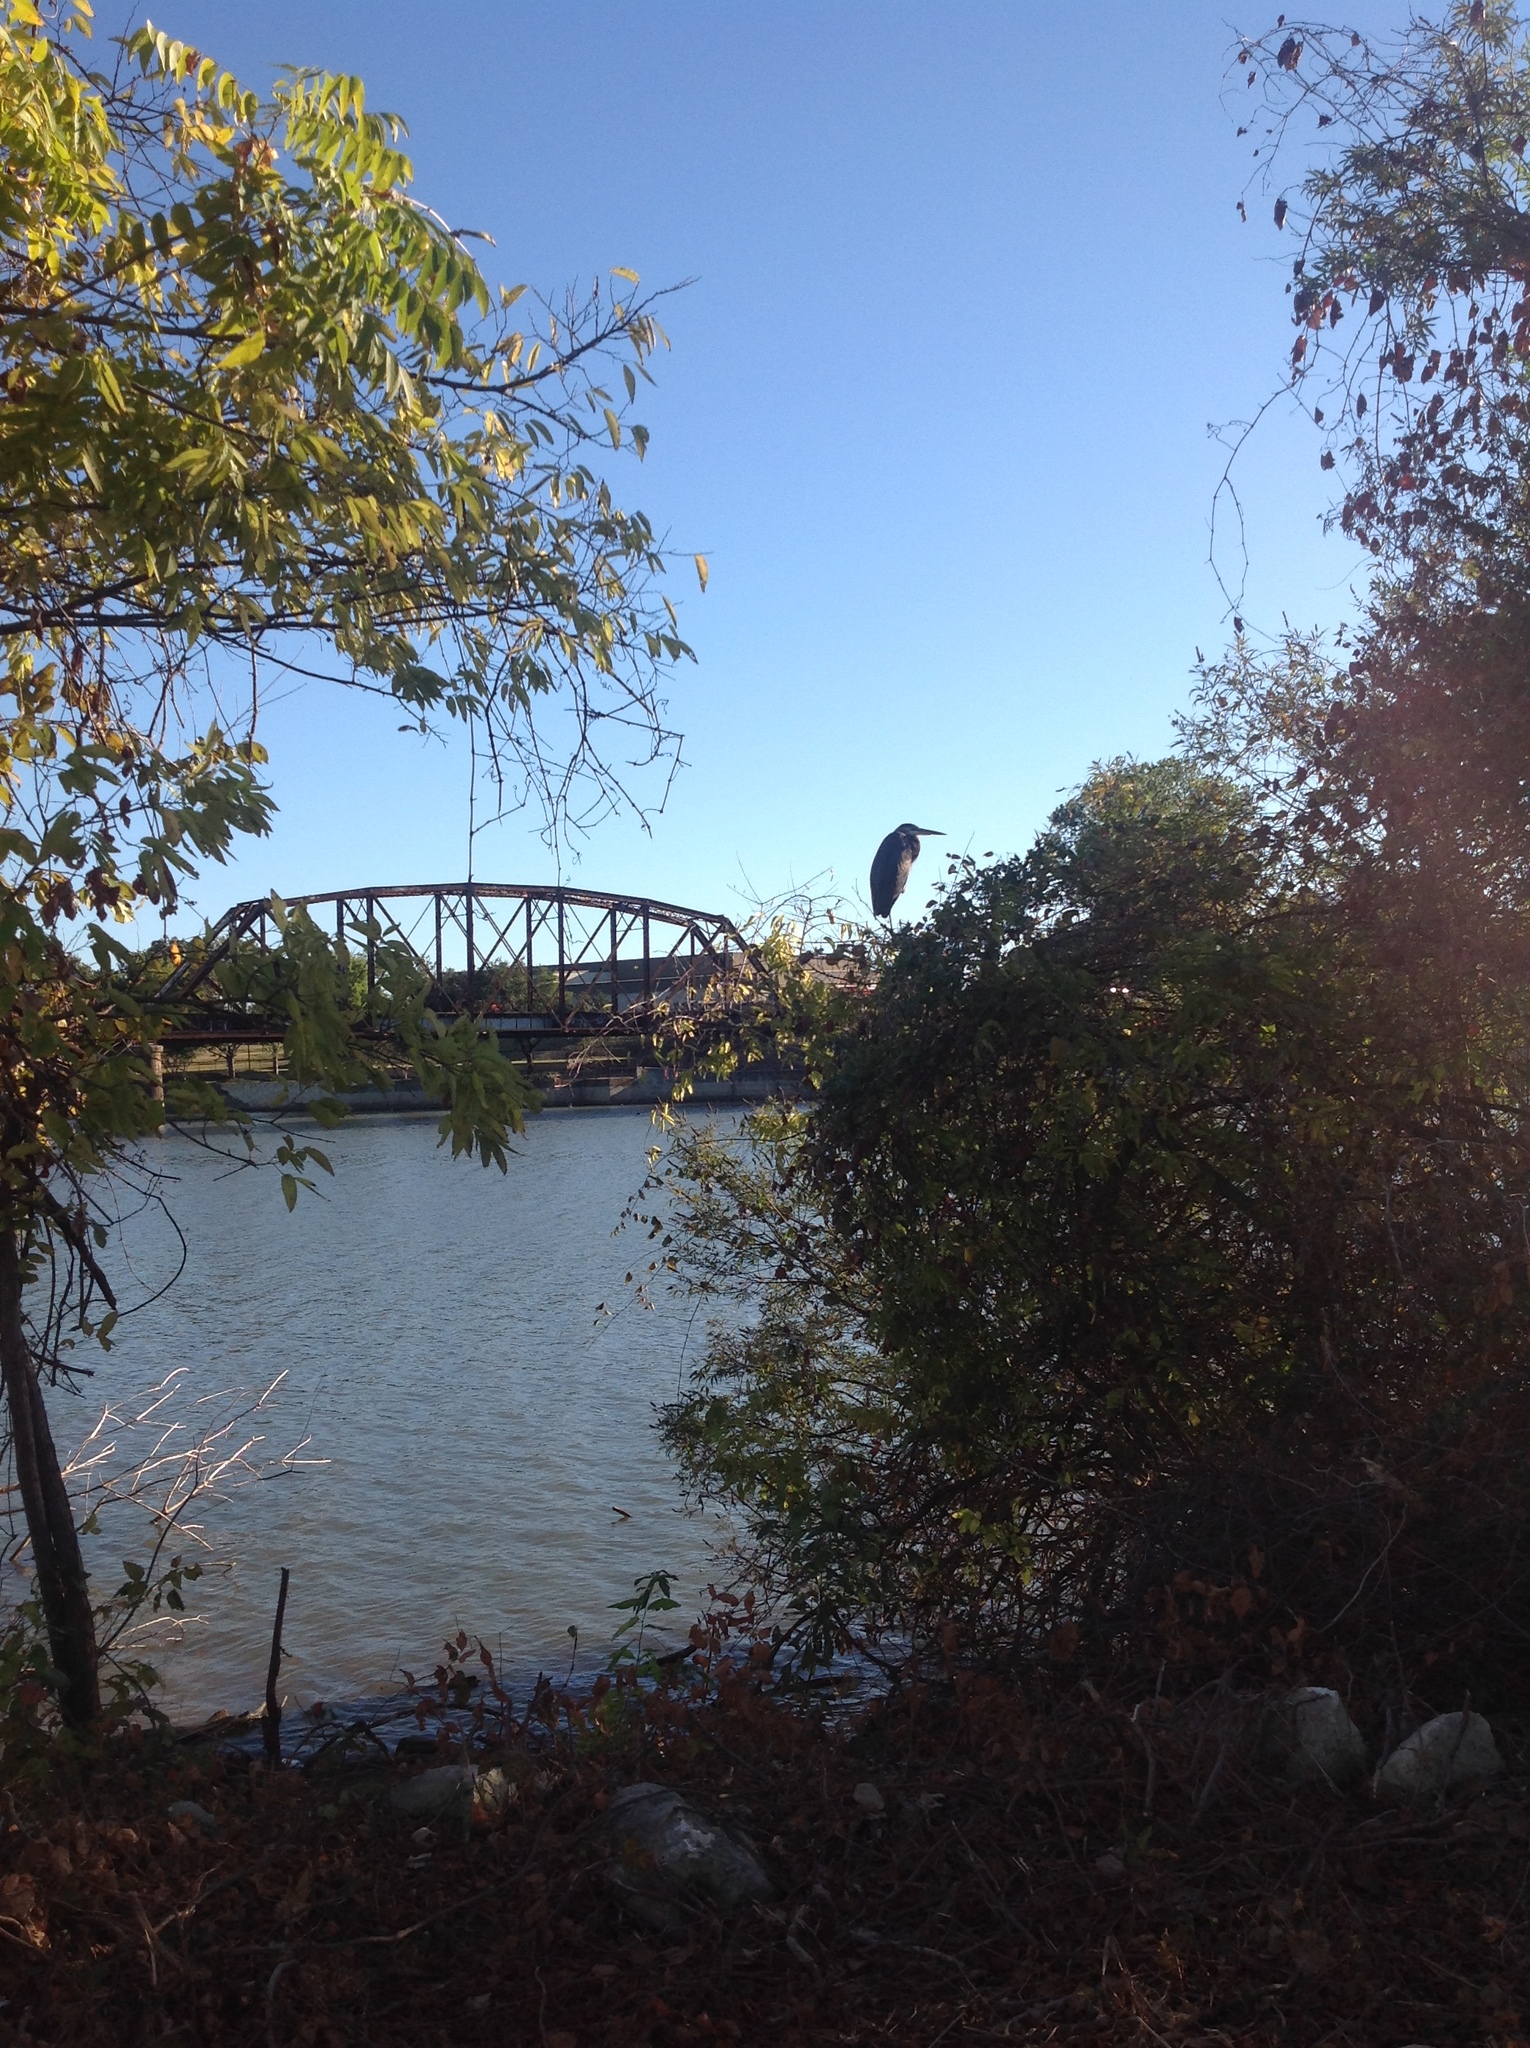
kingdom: Animalia
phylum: Chordata
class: Aves
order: Pelecaniformes
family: Ardeidae
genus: Ardea
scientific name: Ardea herodias
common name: Great blue heron
